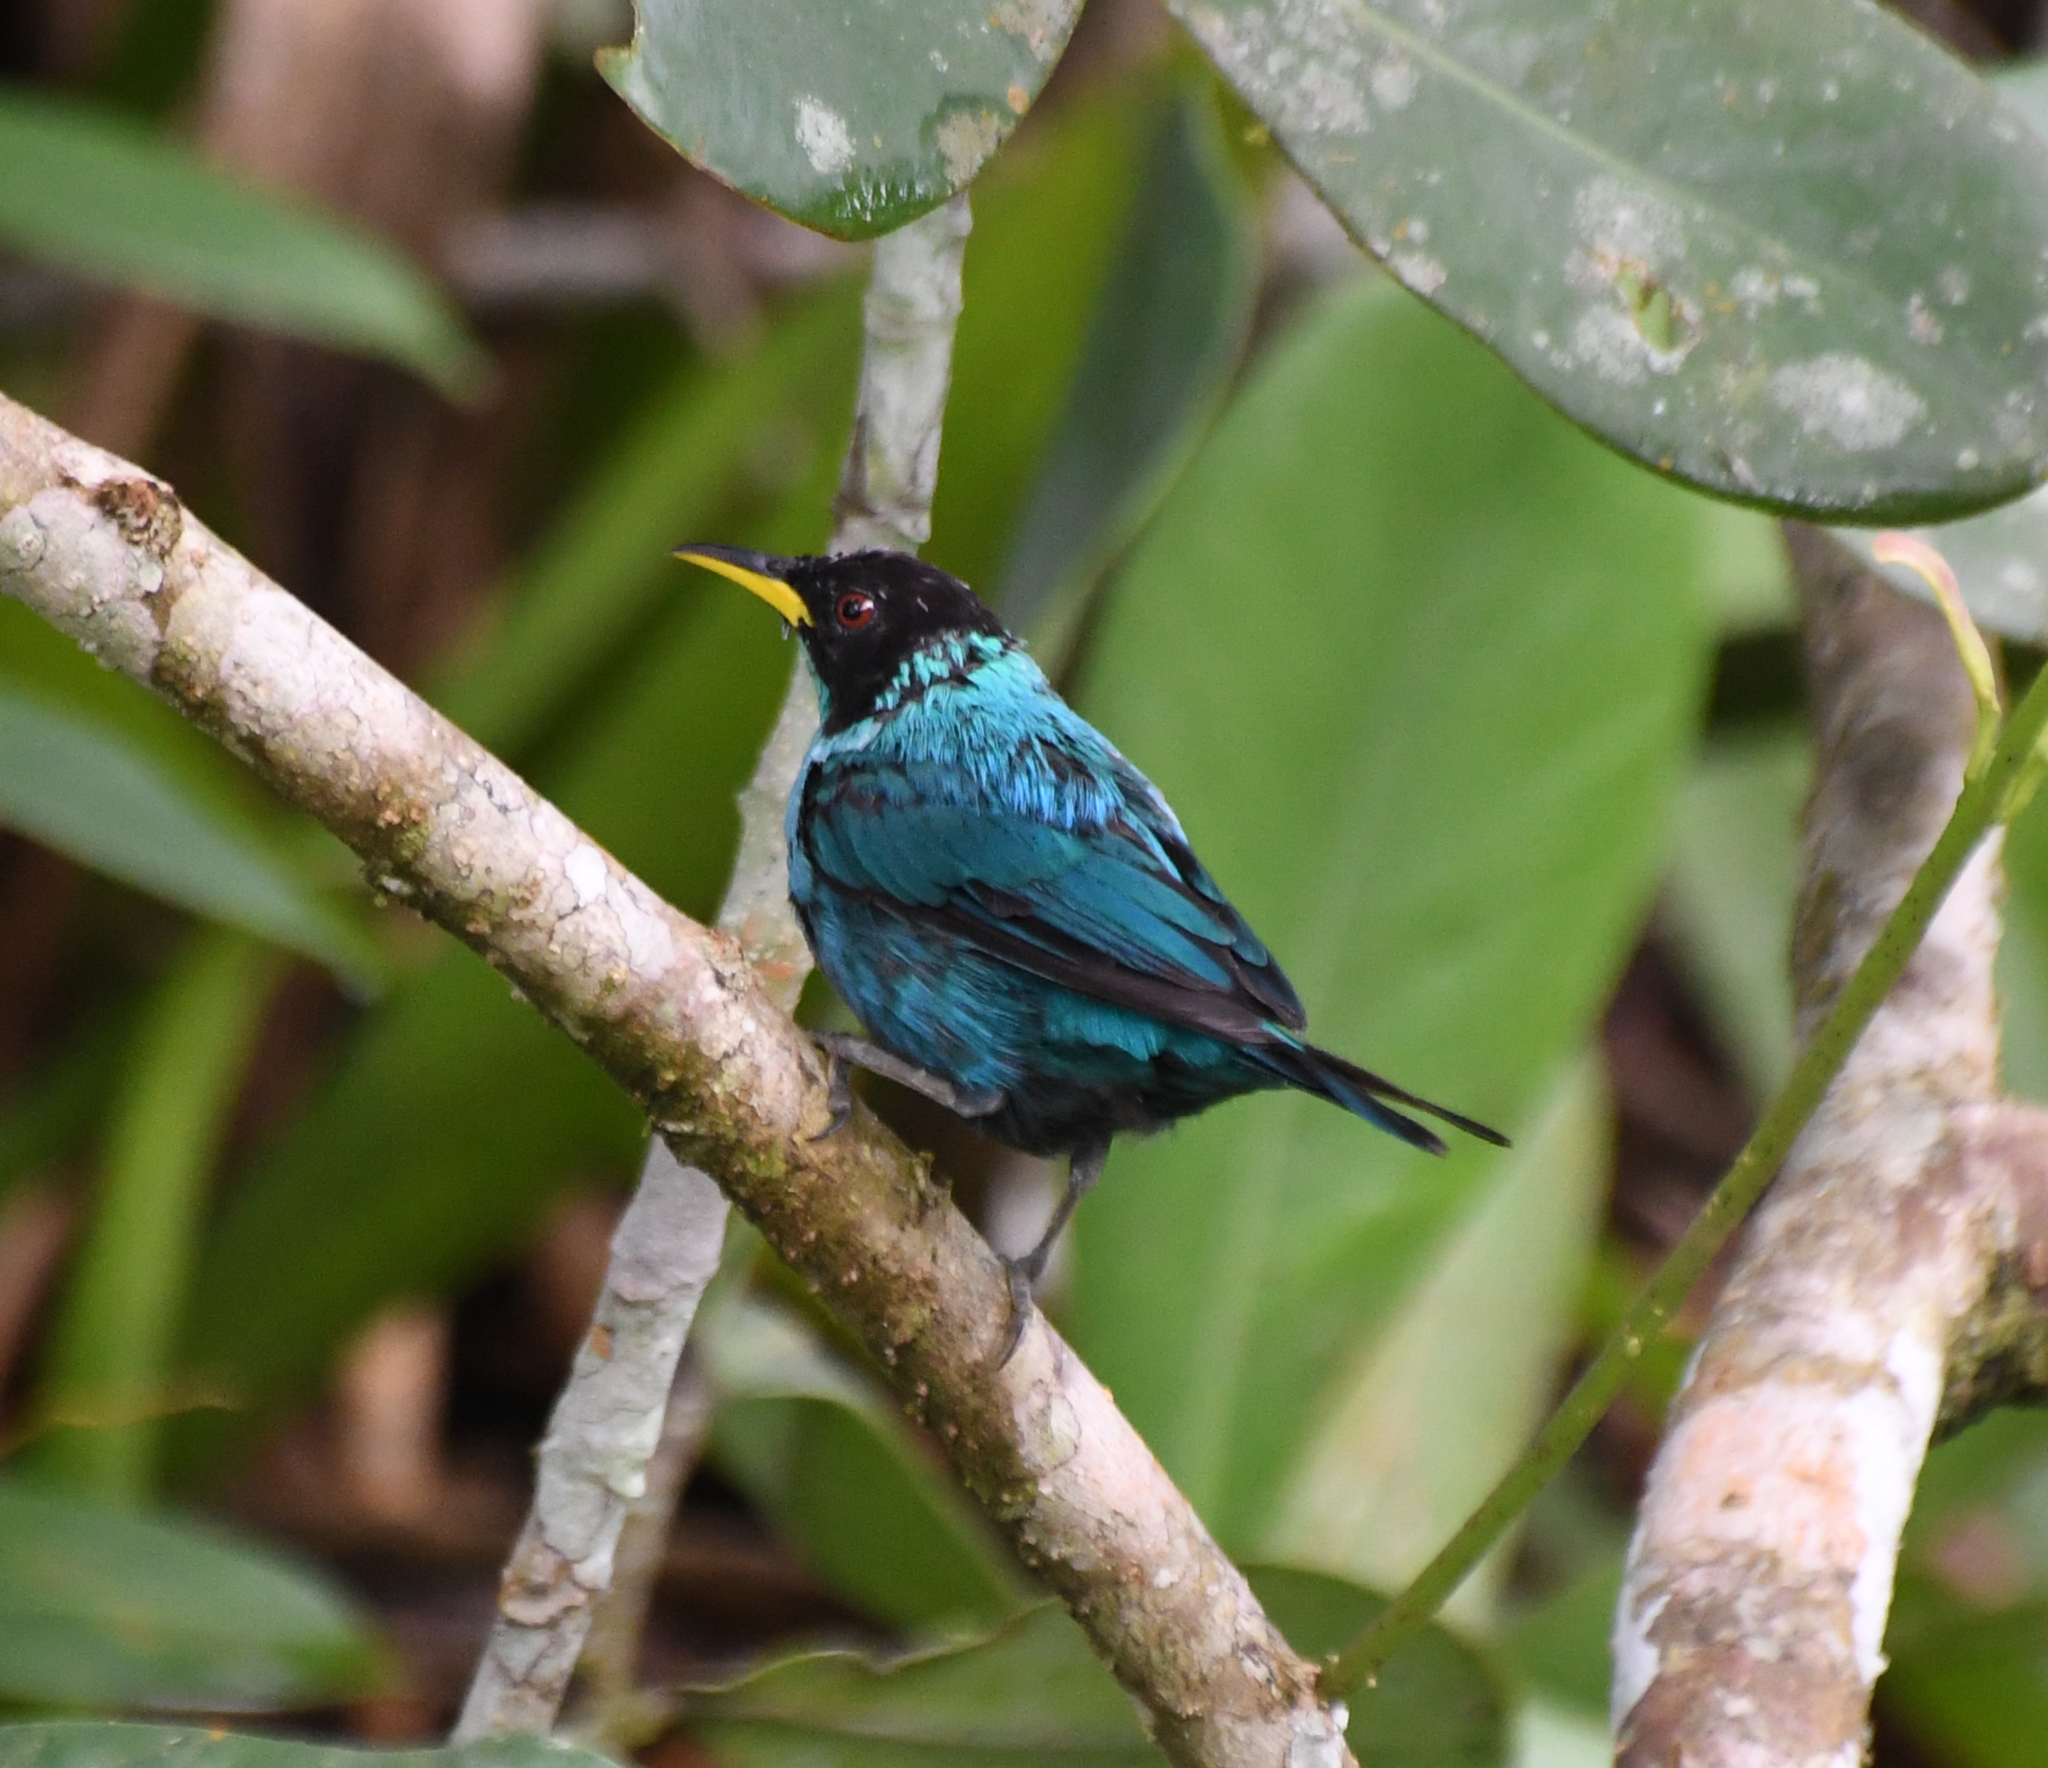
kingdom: Animalia
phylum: Chordata
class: Aves
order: Passeriformes
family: Thraupidae
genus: Chlorophanes
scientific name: Chlorophanes spiza
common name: Green honeycreeper
